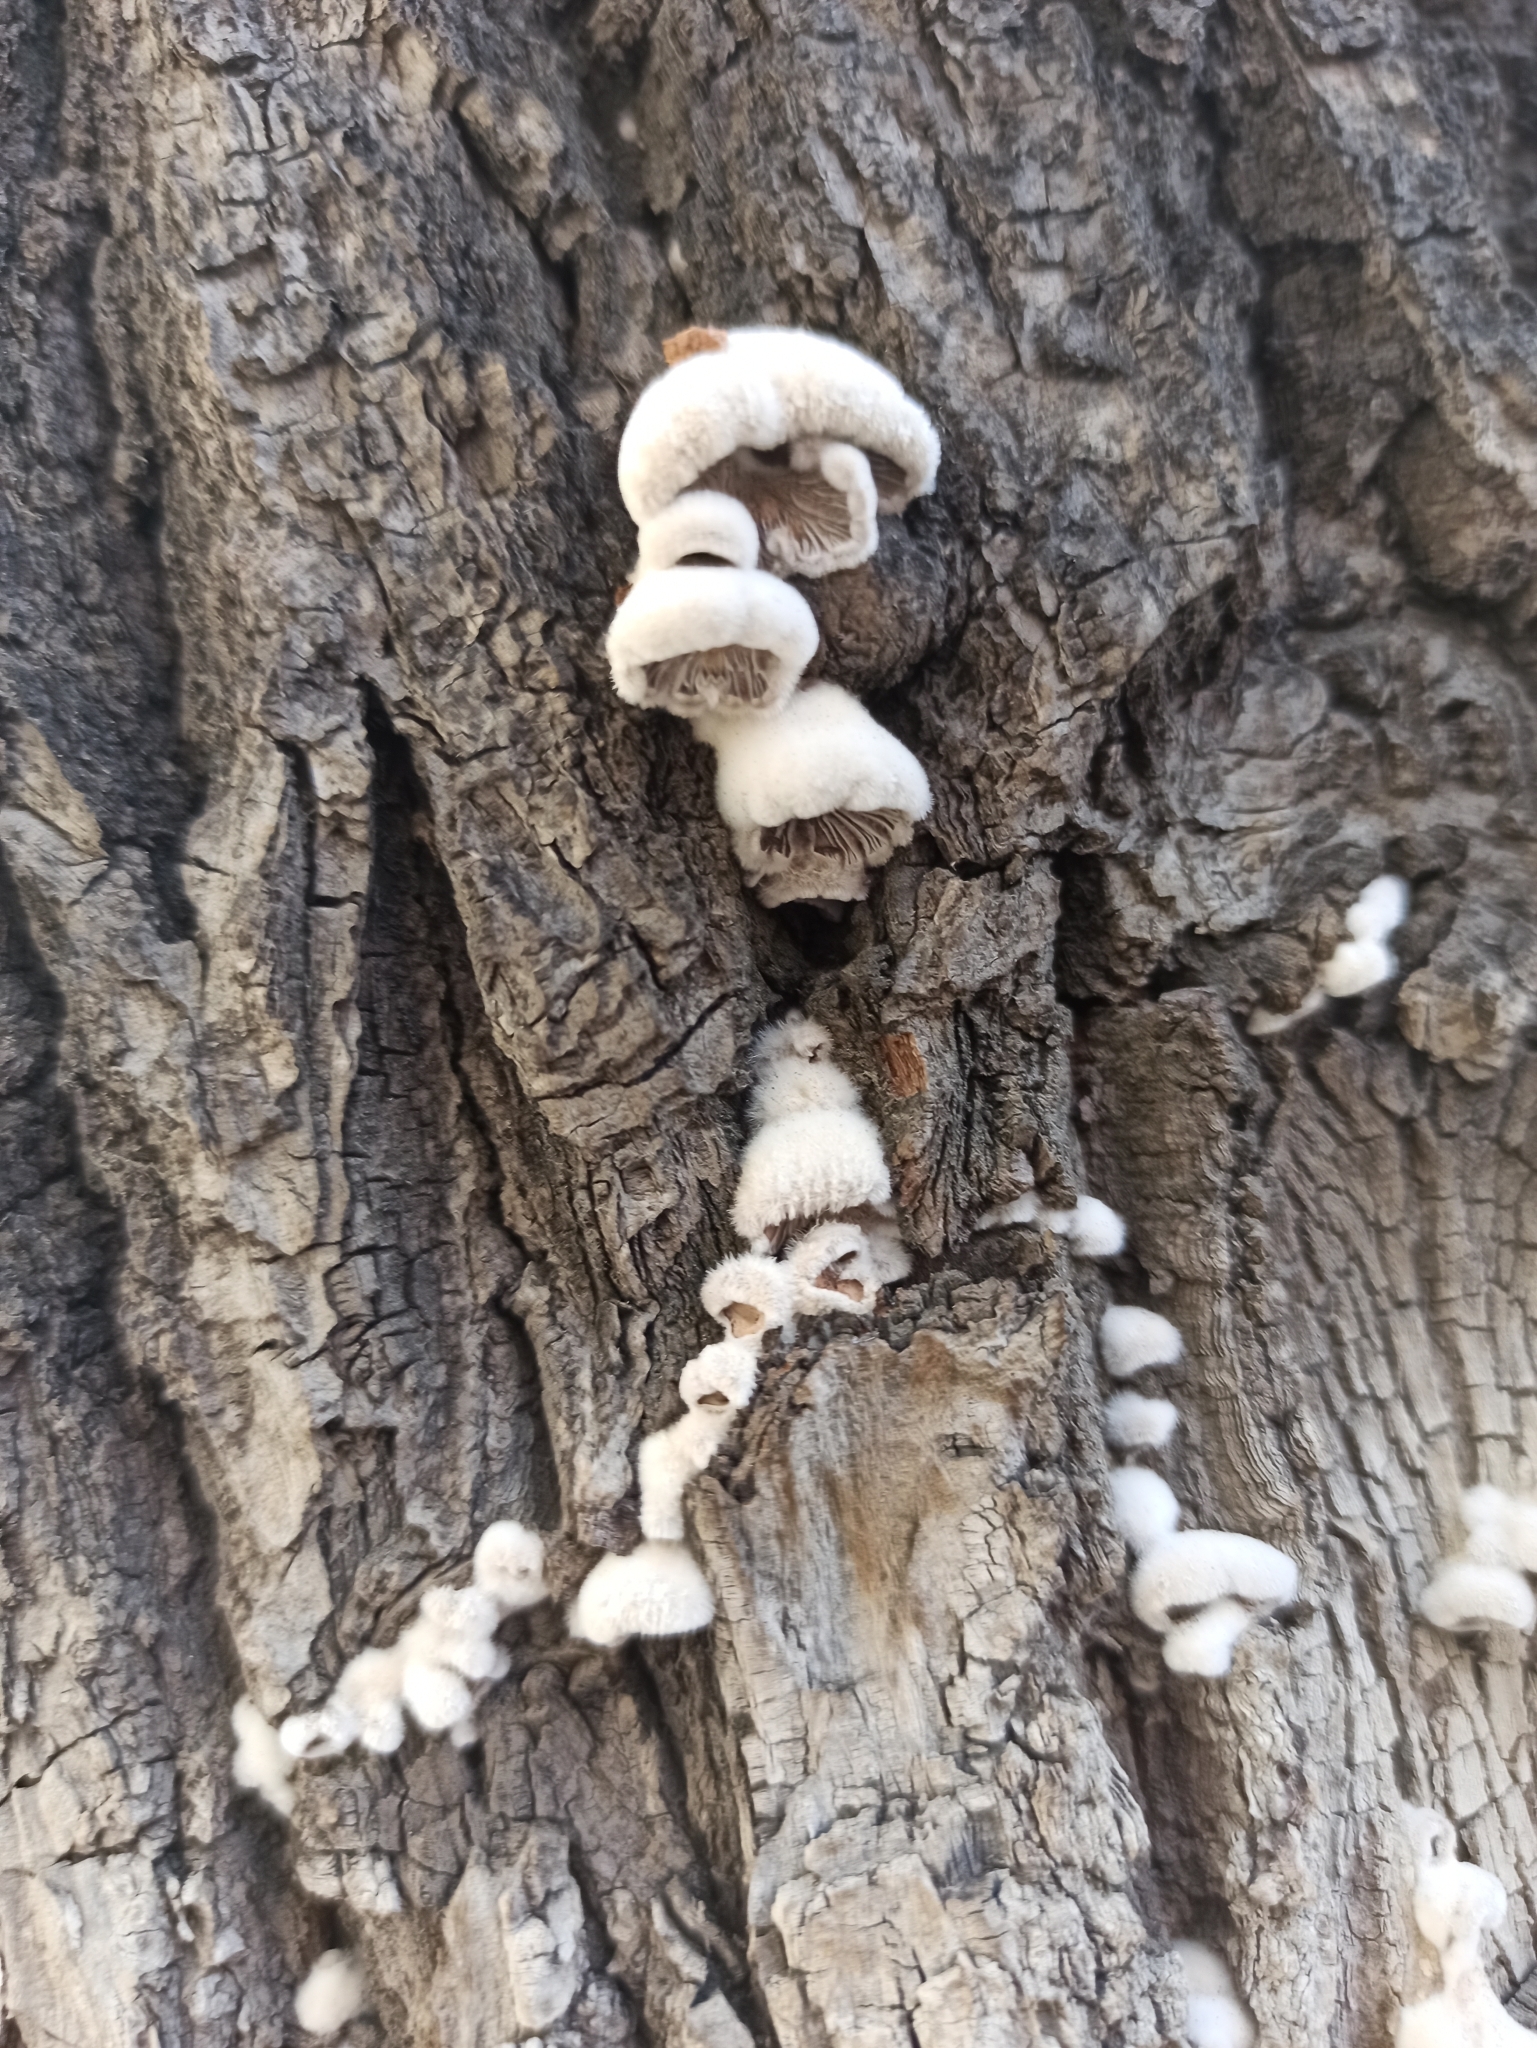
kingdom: Fungi
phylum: Basidiomycota
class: Agaricomycetes
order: Agaricales
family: Schizophyllaceae
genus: Schizophyllum
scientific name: Schizophyllum commune
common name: Common porecrust
